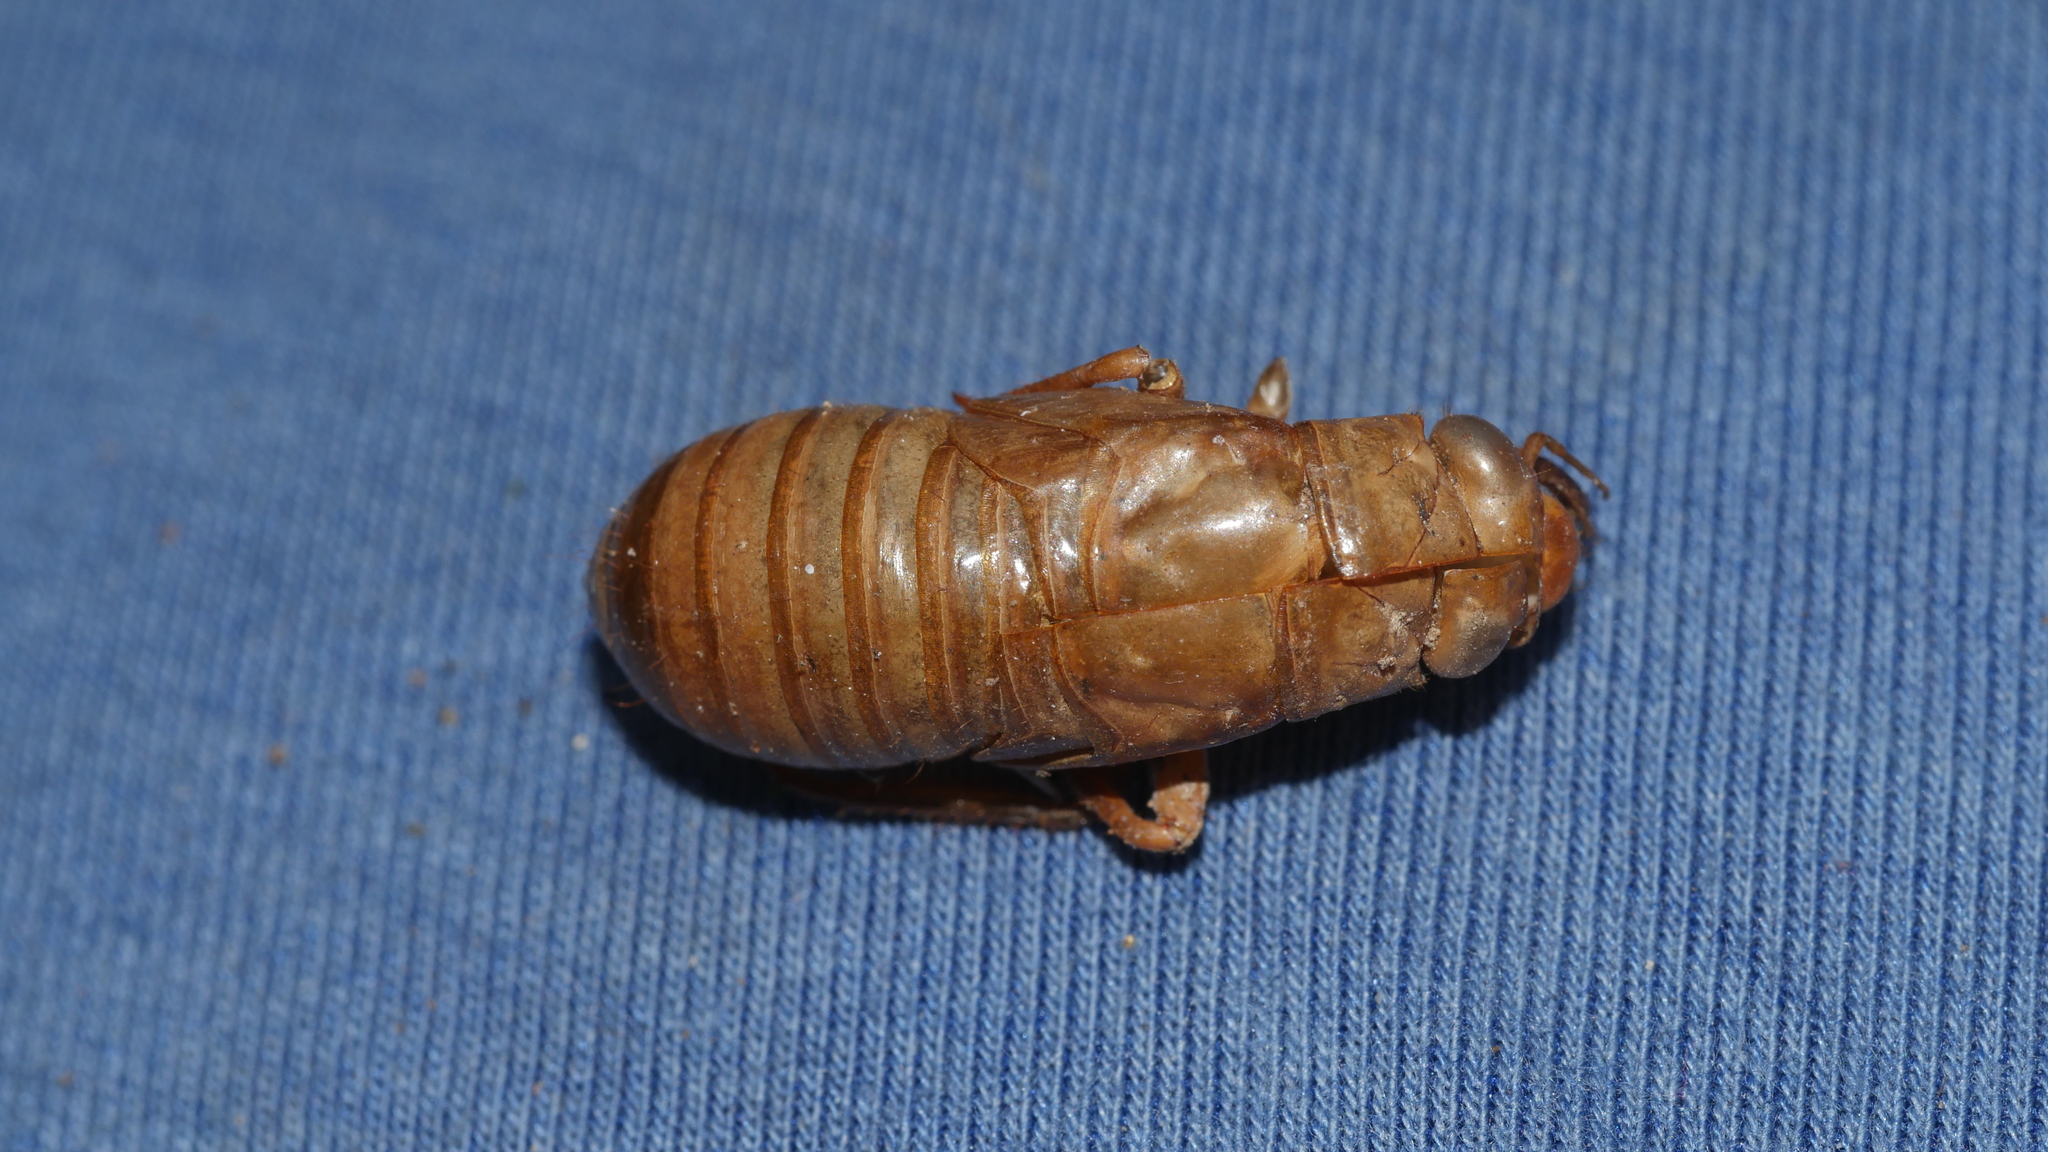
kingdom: Animalia
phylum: Arthropoda
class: Insecta
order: Hemiptera
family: Cicadidae
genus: Magicicada
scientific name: Magicicada
